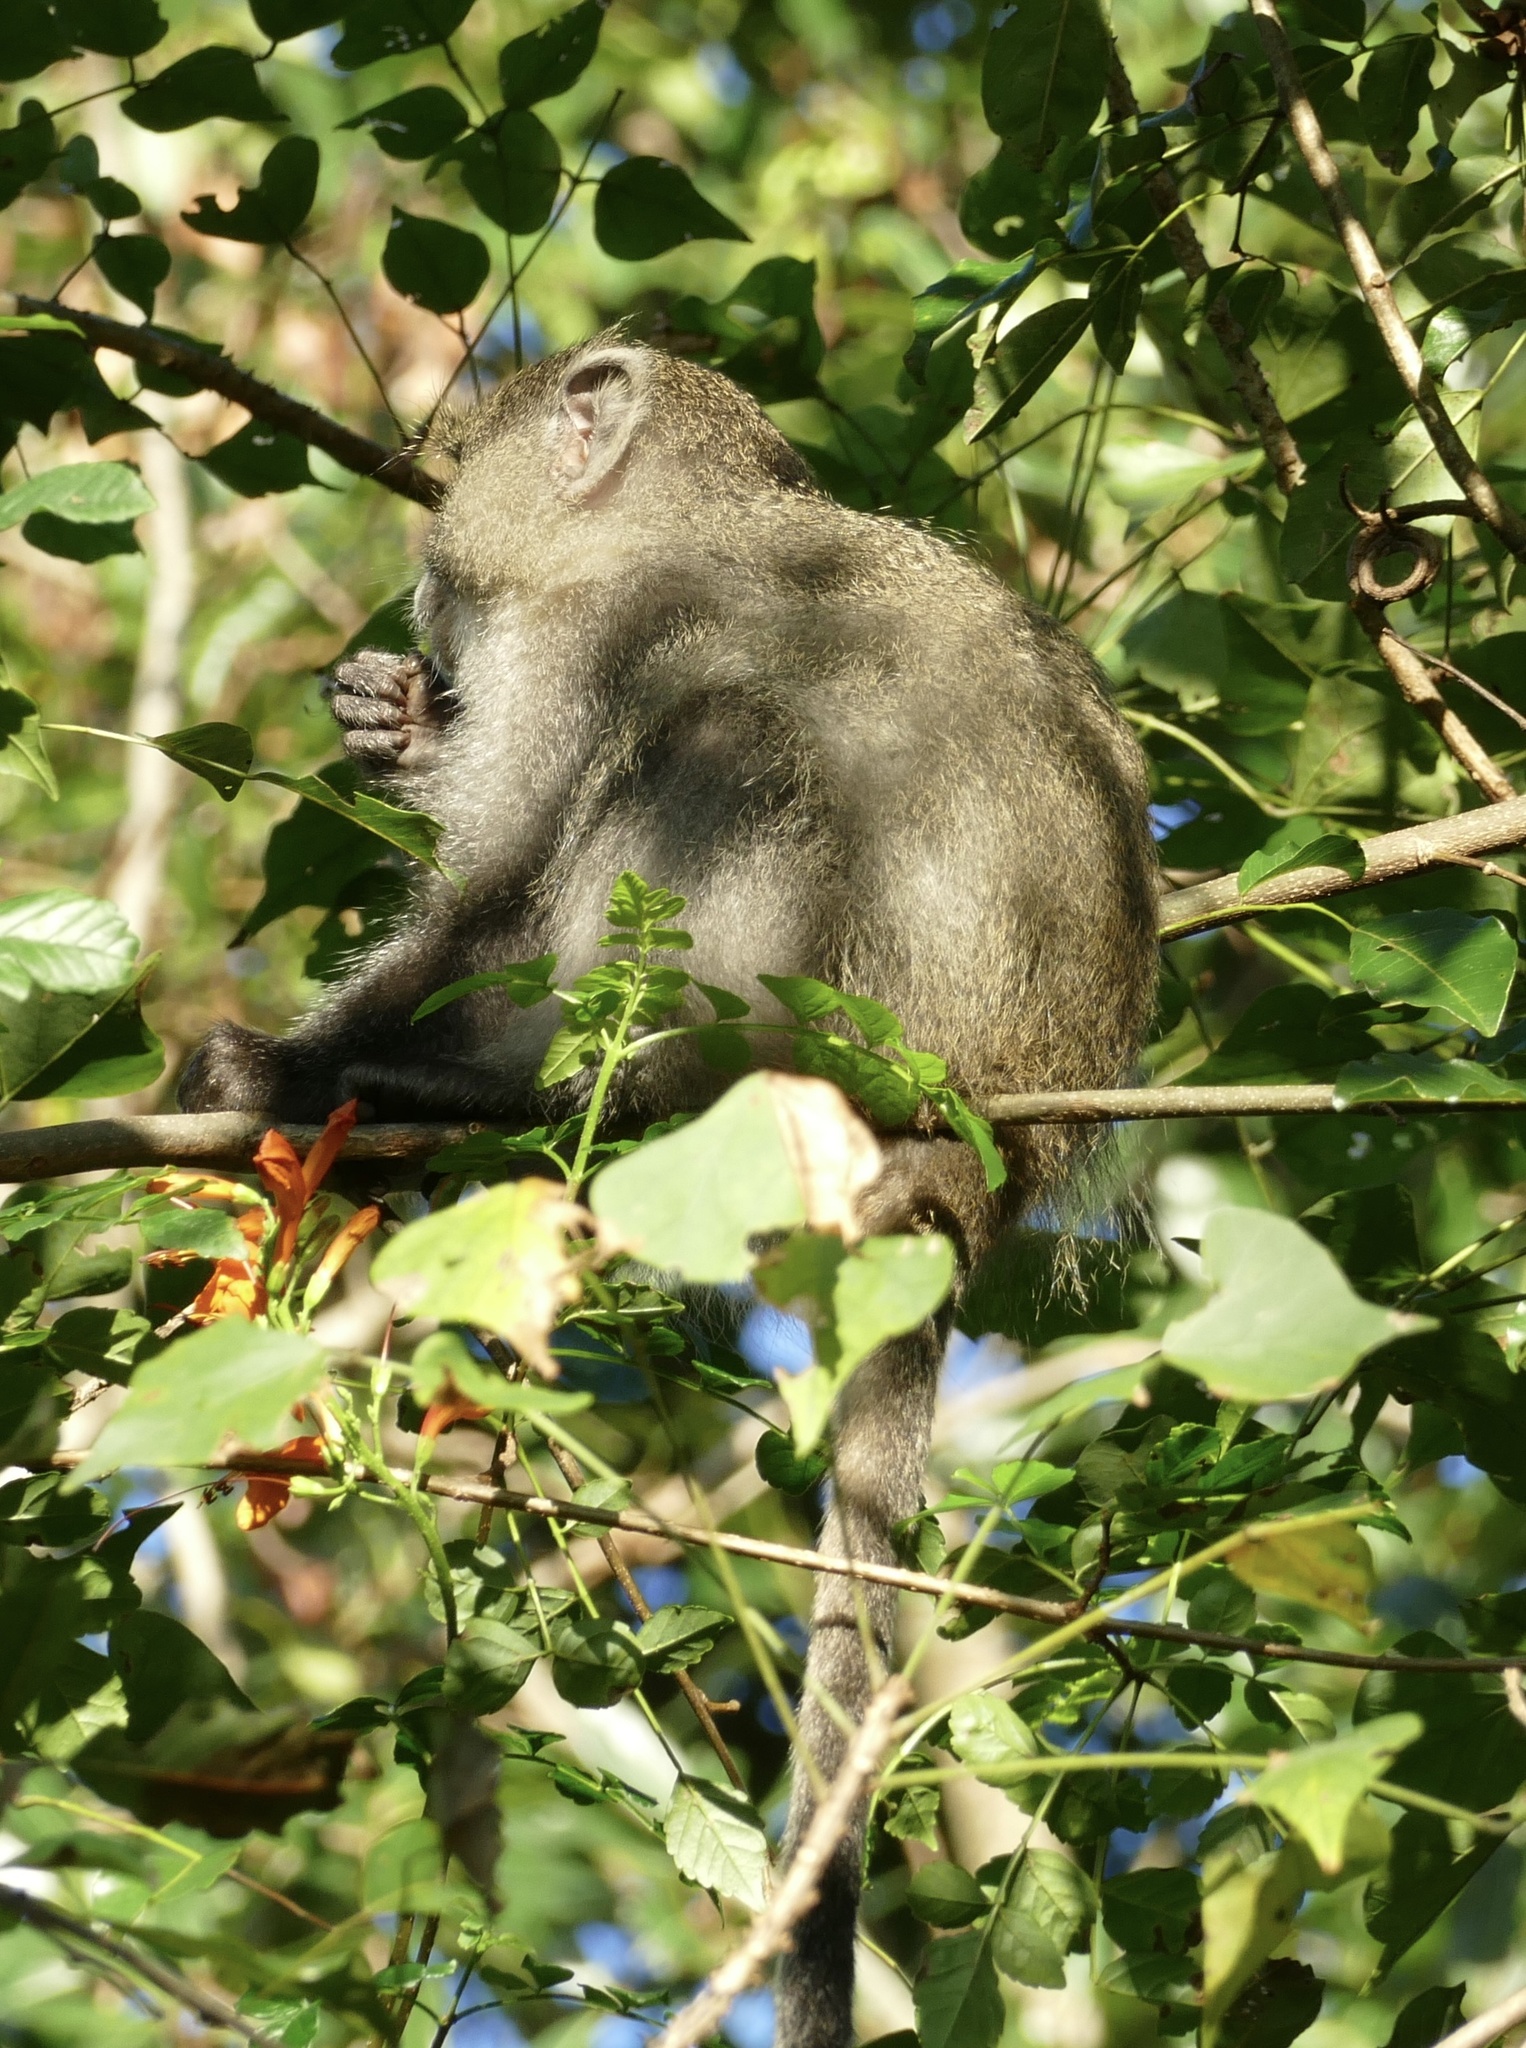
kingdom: Animalia
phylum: Chordata
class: Mammalia
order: Primates
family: Cercopithecidae
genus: Cercopithecus
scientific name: Cercopithecus mitis
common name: Blue monkey
